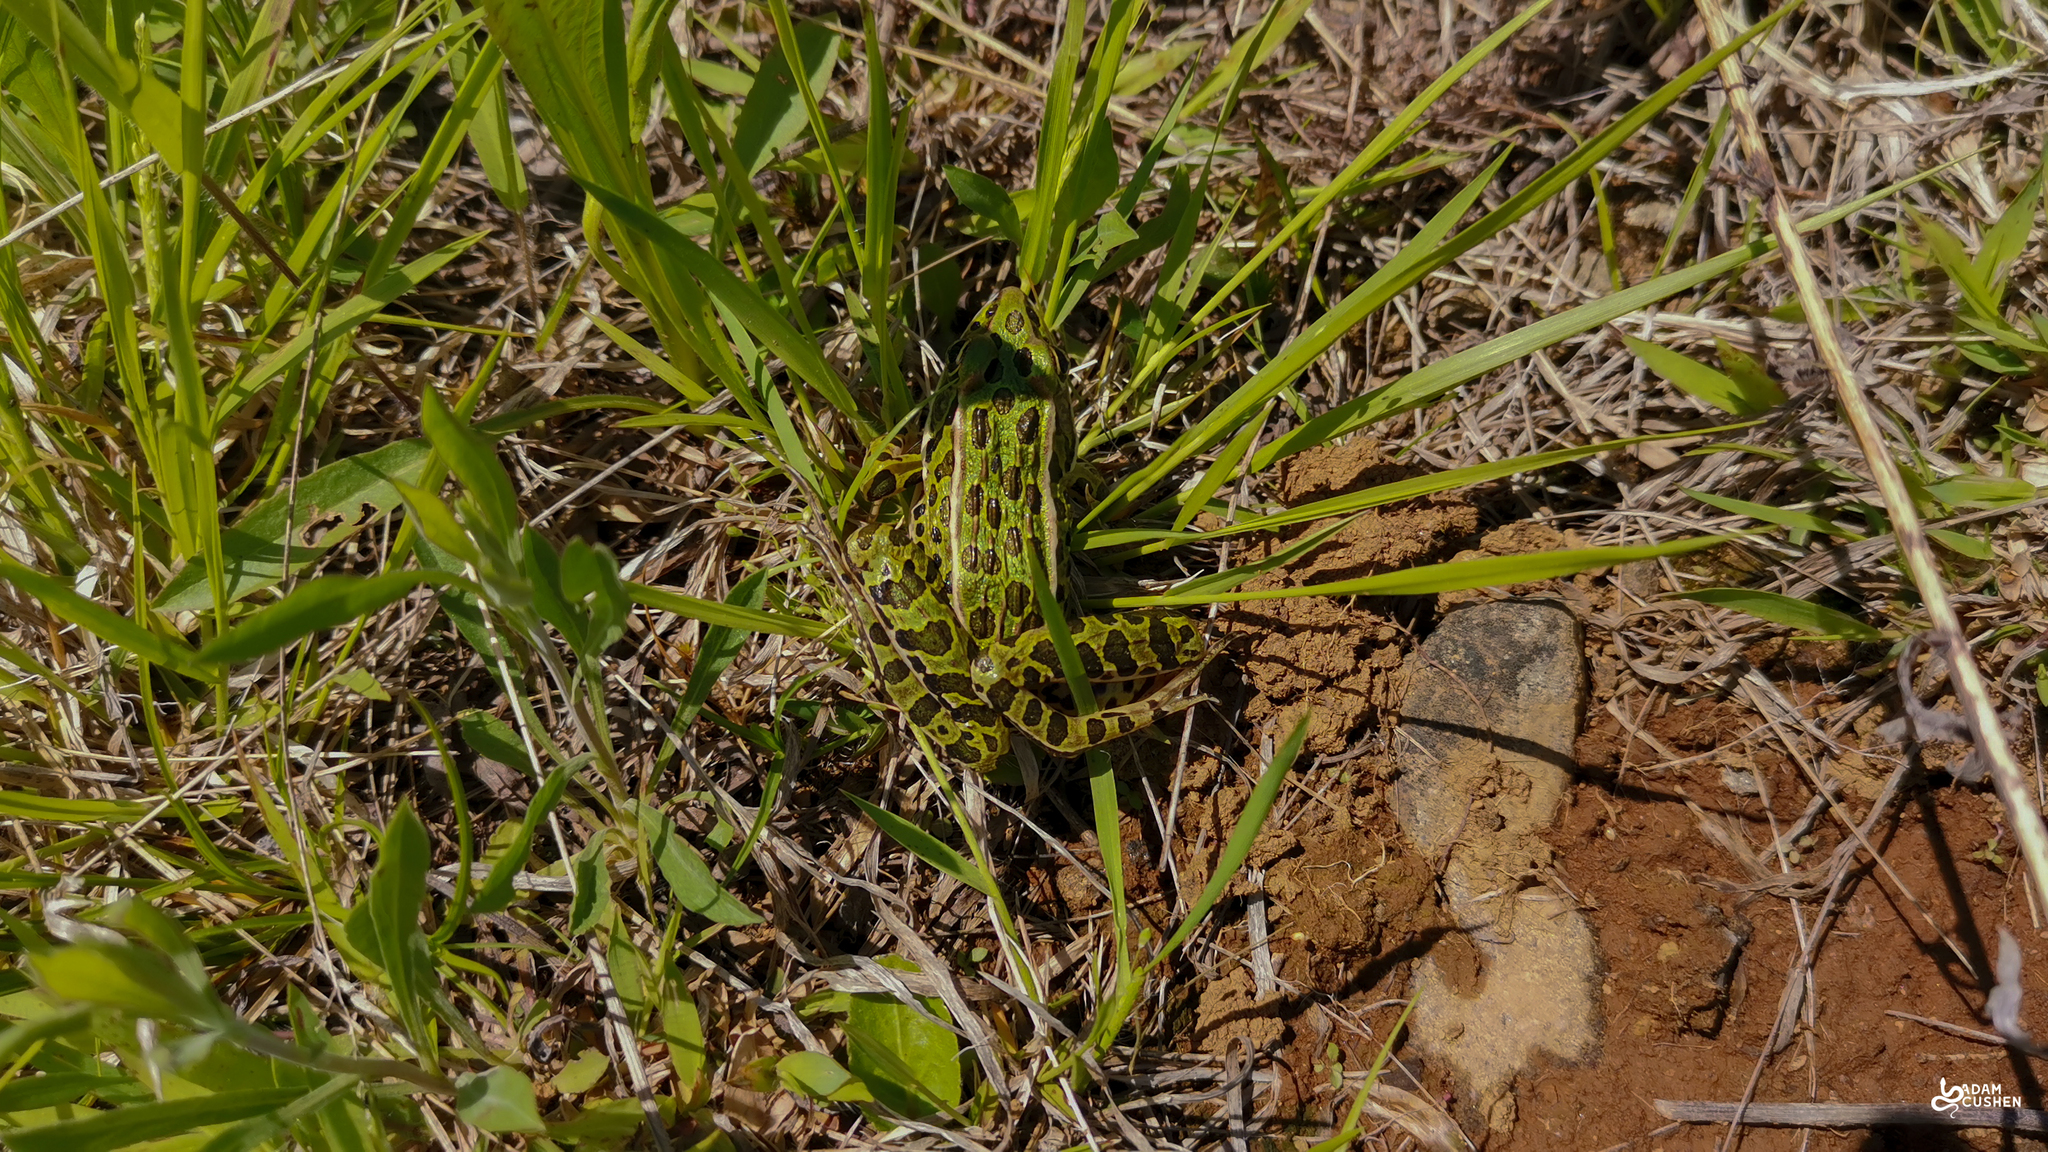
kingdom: Animalia
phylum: Chordata
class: Amphibia
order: Anura
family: Ranidae
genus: Lithobates
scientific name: Lithobates pipiens
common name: Northern leopard frog
